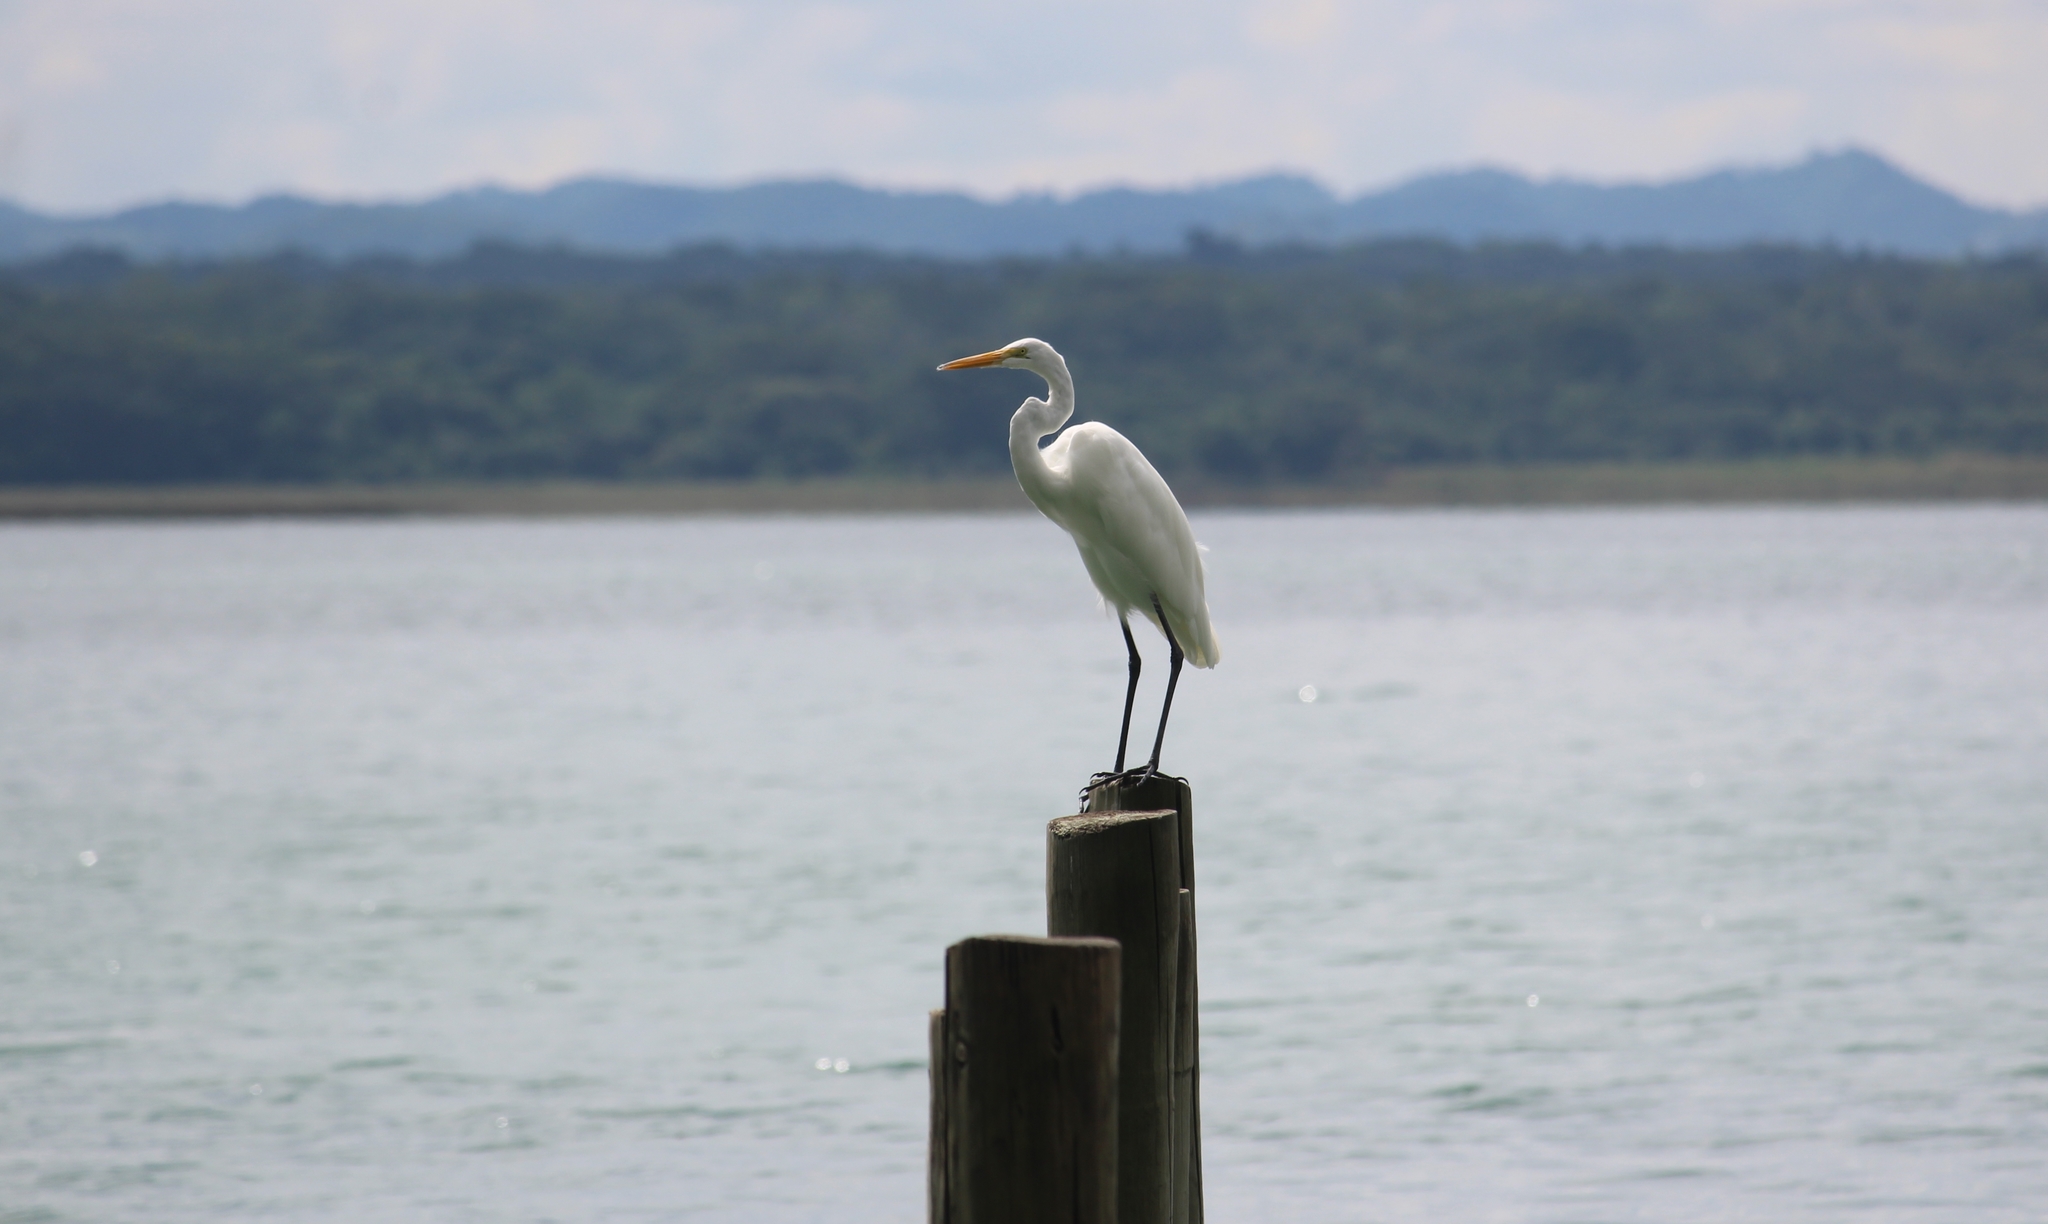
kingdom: Animalia
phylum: Chordata
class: Aves
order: Pelecaniformes
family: Ardeidae
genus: Ardea
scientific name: Ardea alba
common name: Great egret
